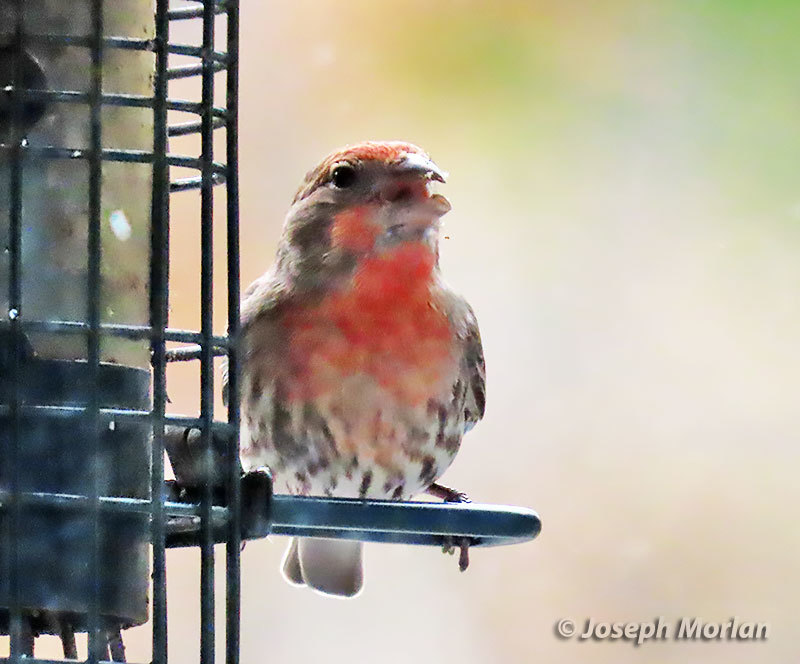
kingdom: Animalia
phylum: Chordata
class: Aves
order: Passeriformes
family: Fringillidae
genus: Haemorhous
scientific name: Haemorhous mexicanus
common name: House finch
